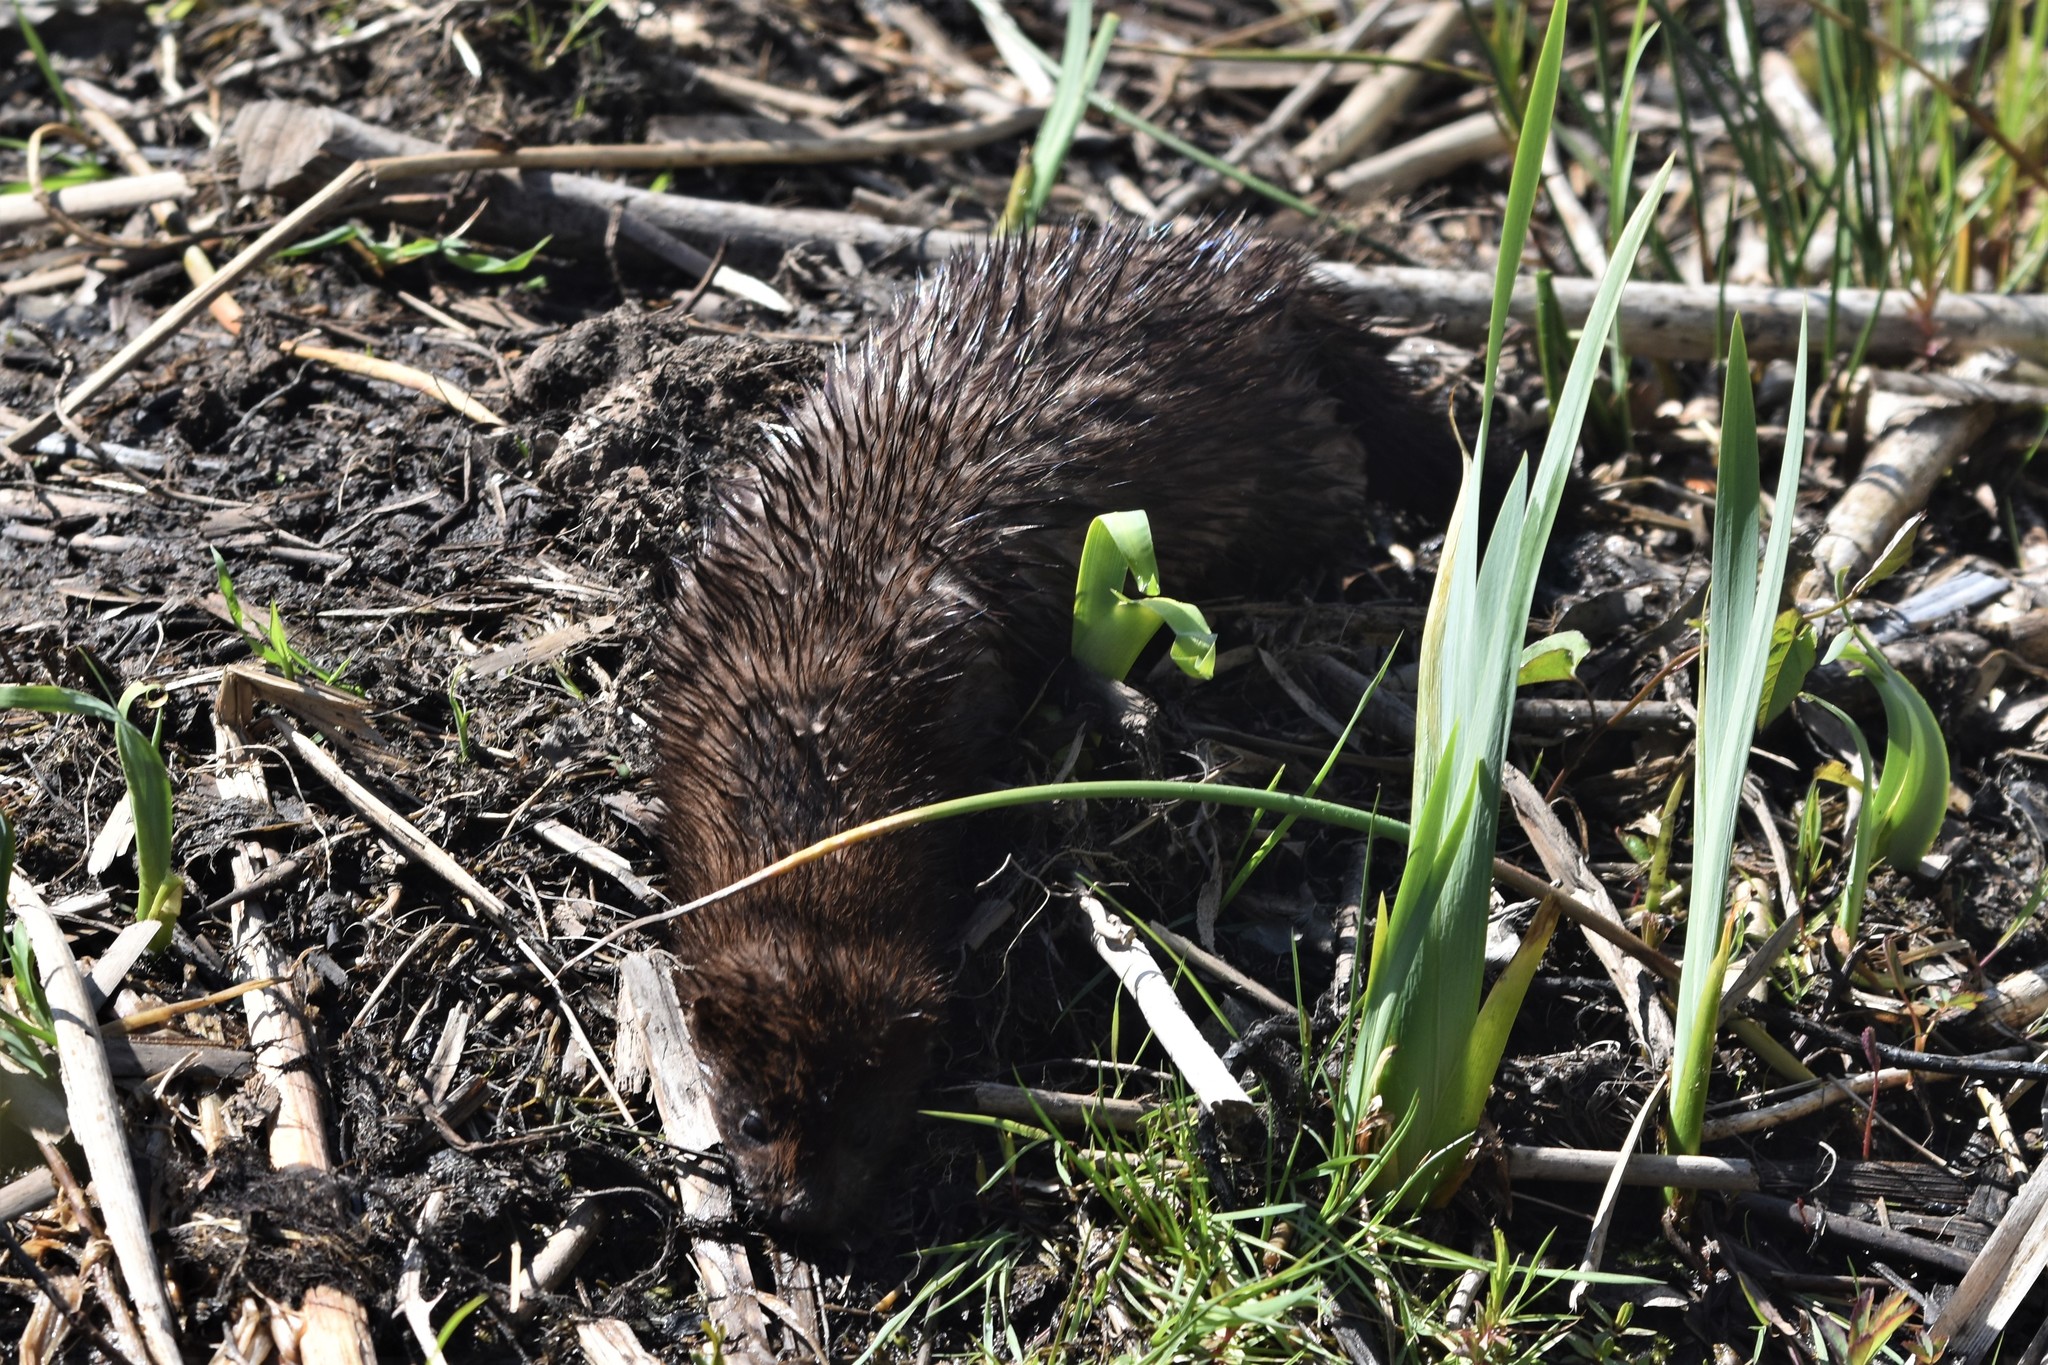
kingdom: Animalia
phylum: Chordata
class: Mammalia
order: Carnivora
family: Mustelidae
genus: Mustela
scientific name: Mustela
